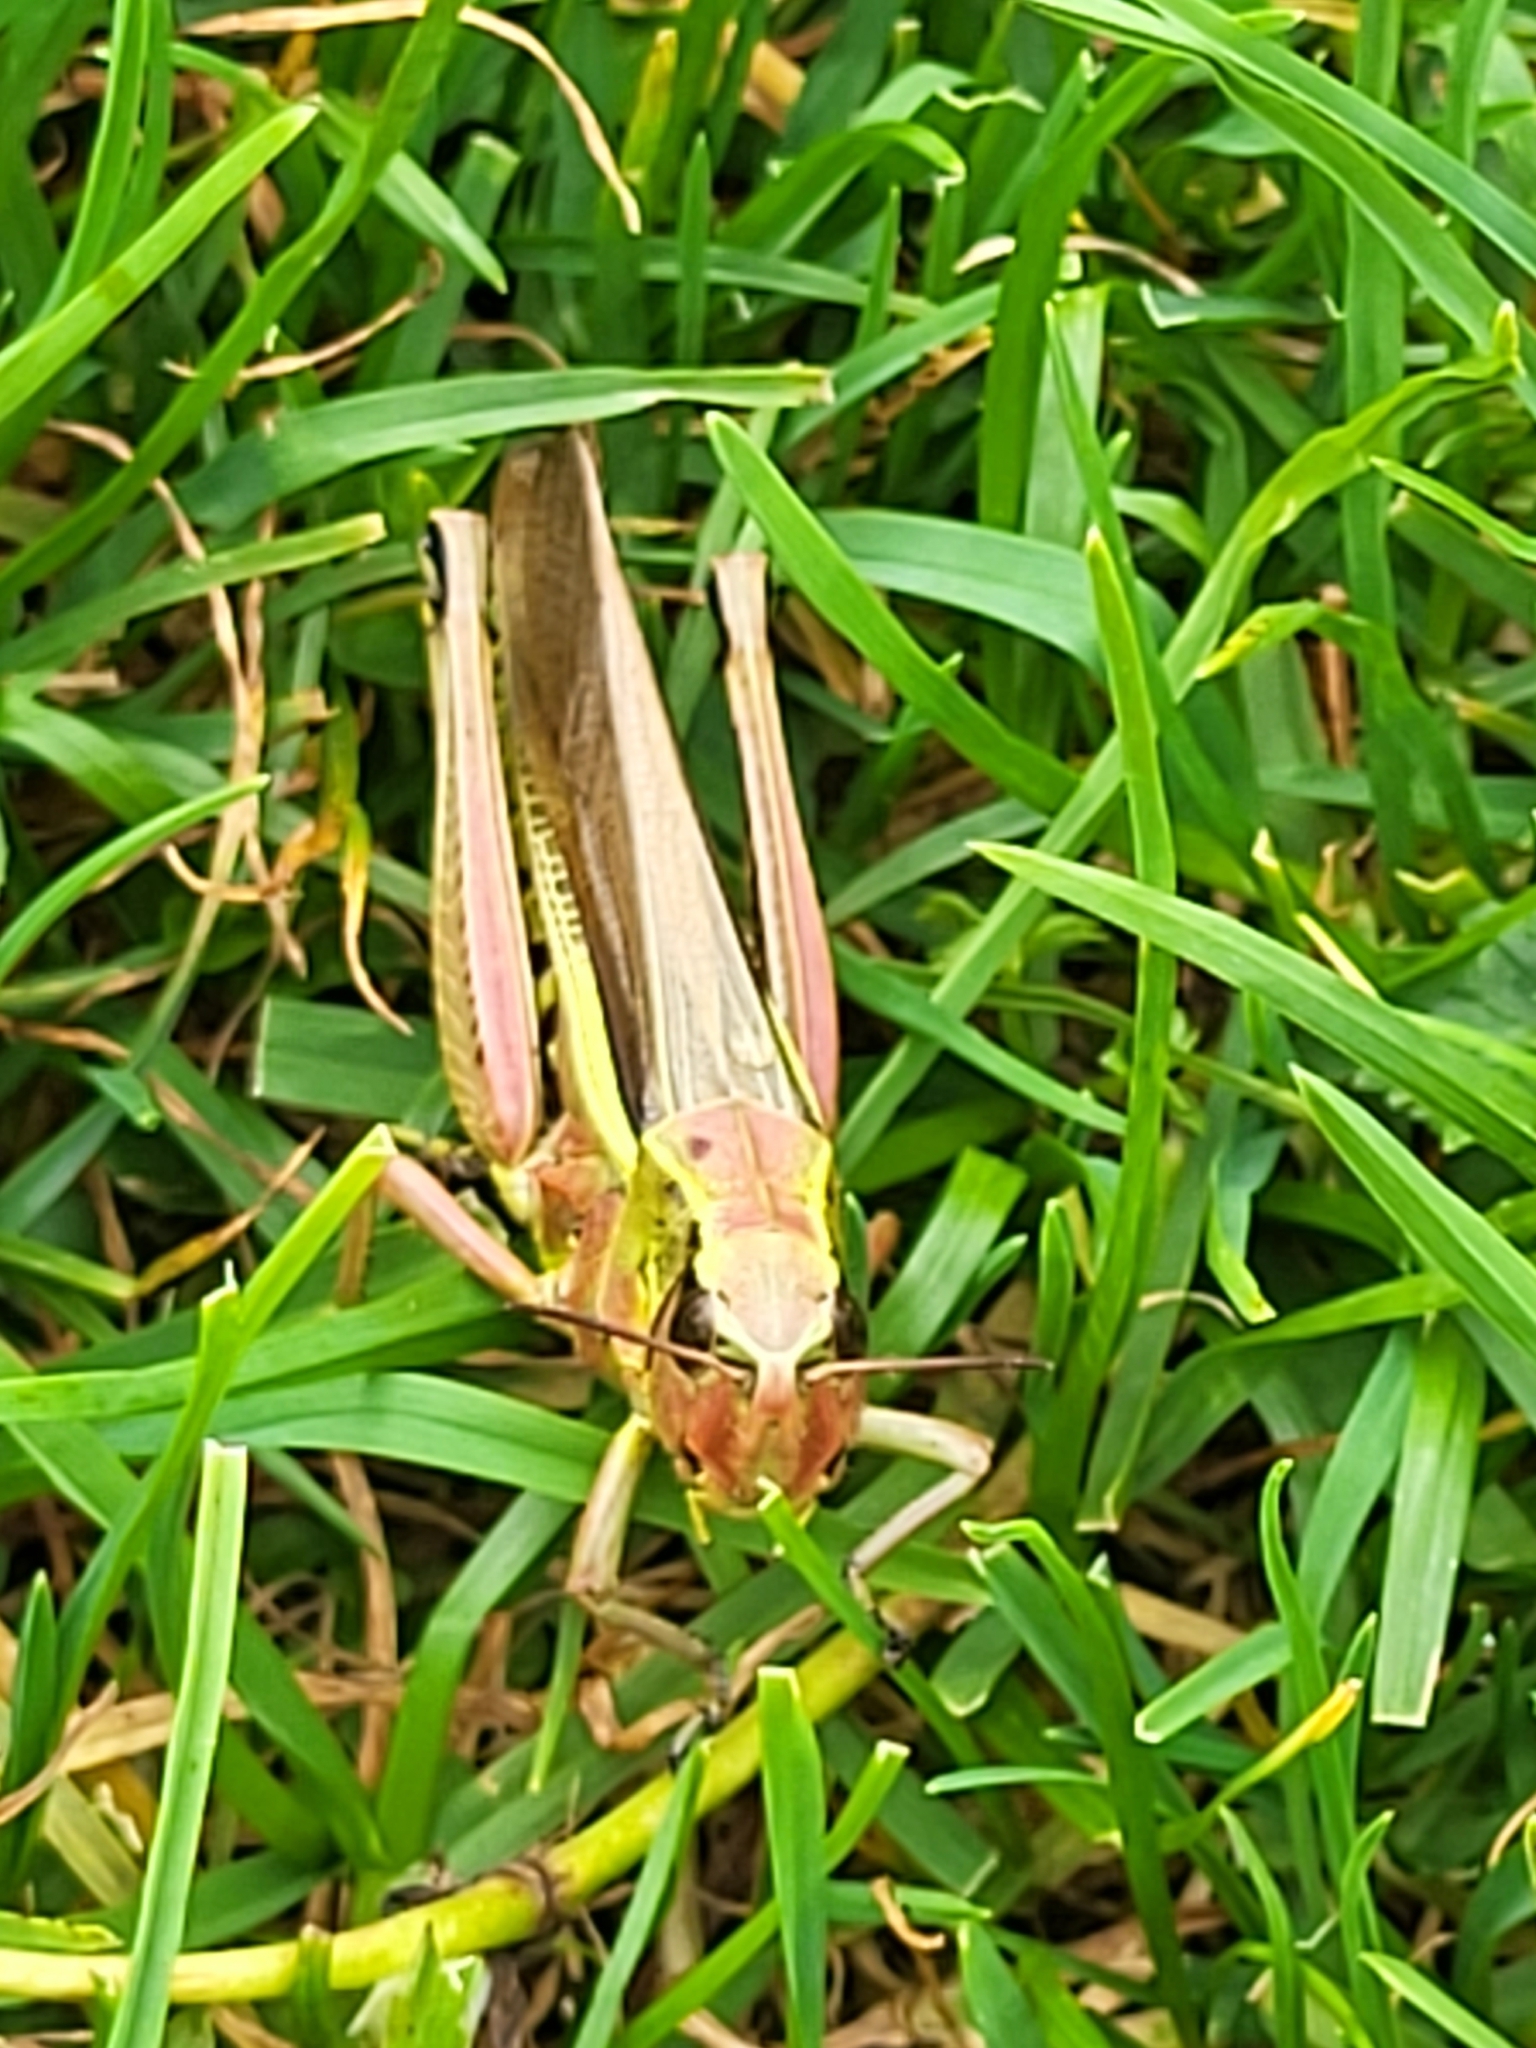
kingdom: Animalia
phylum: Arthropoda
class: Insecta
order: Orthoptera
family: Acrididae
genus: Stethophyma
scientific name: Stethophyma grossum
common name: Large marsh grasshopper
